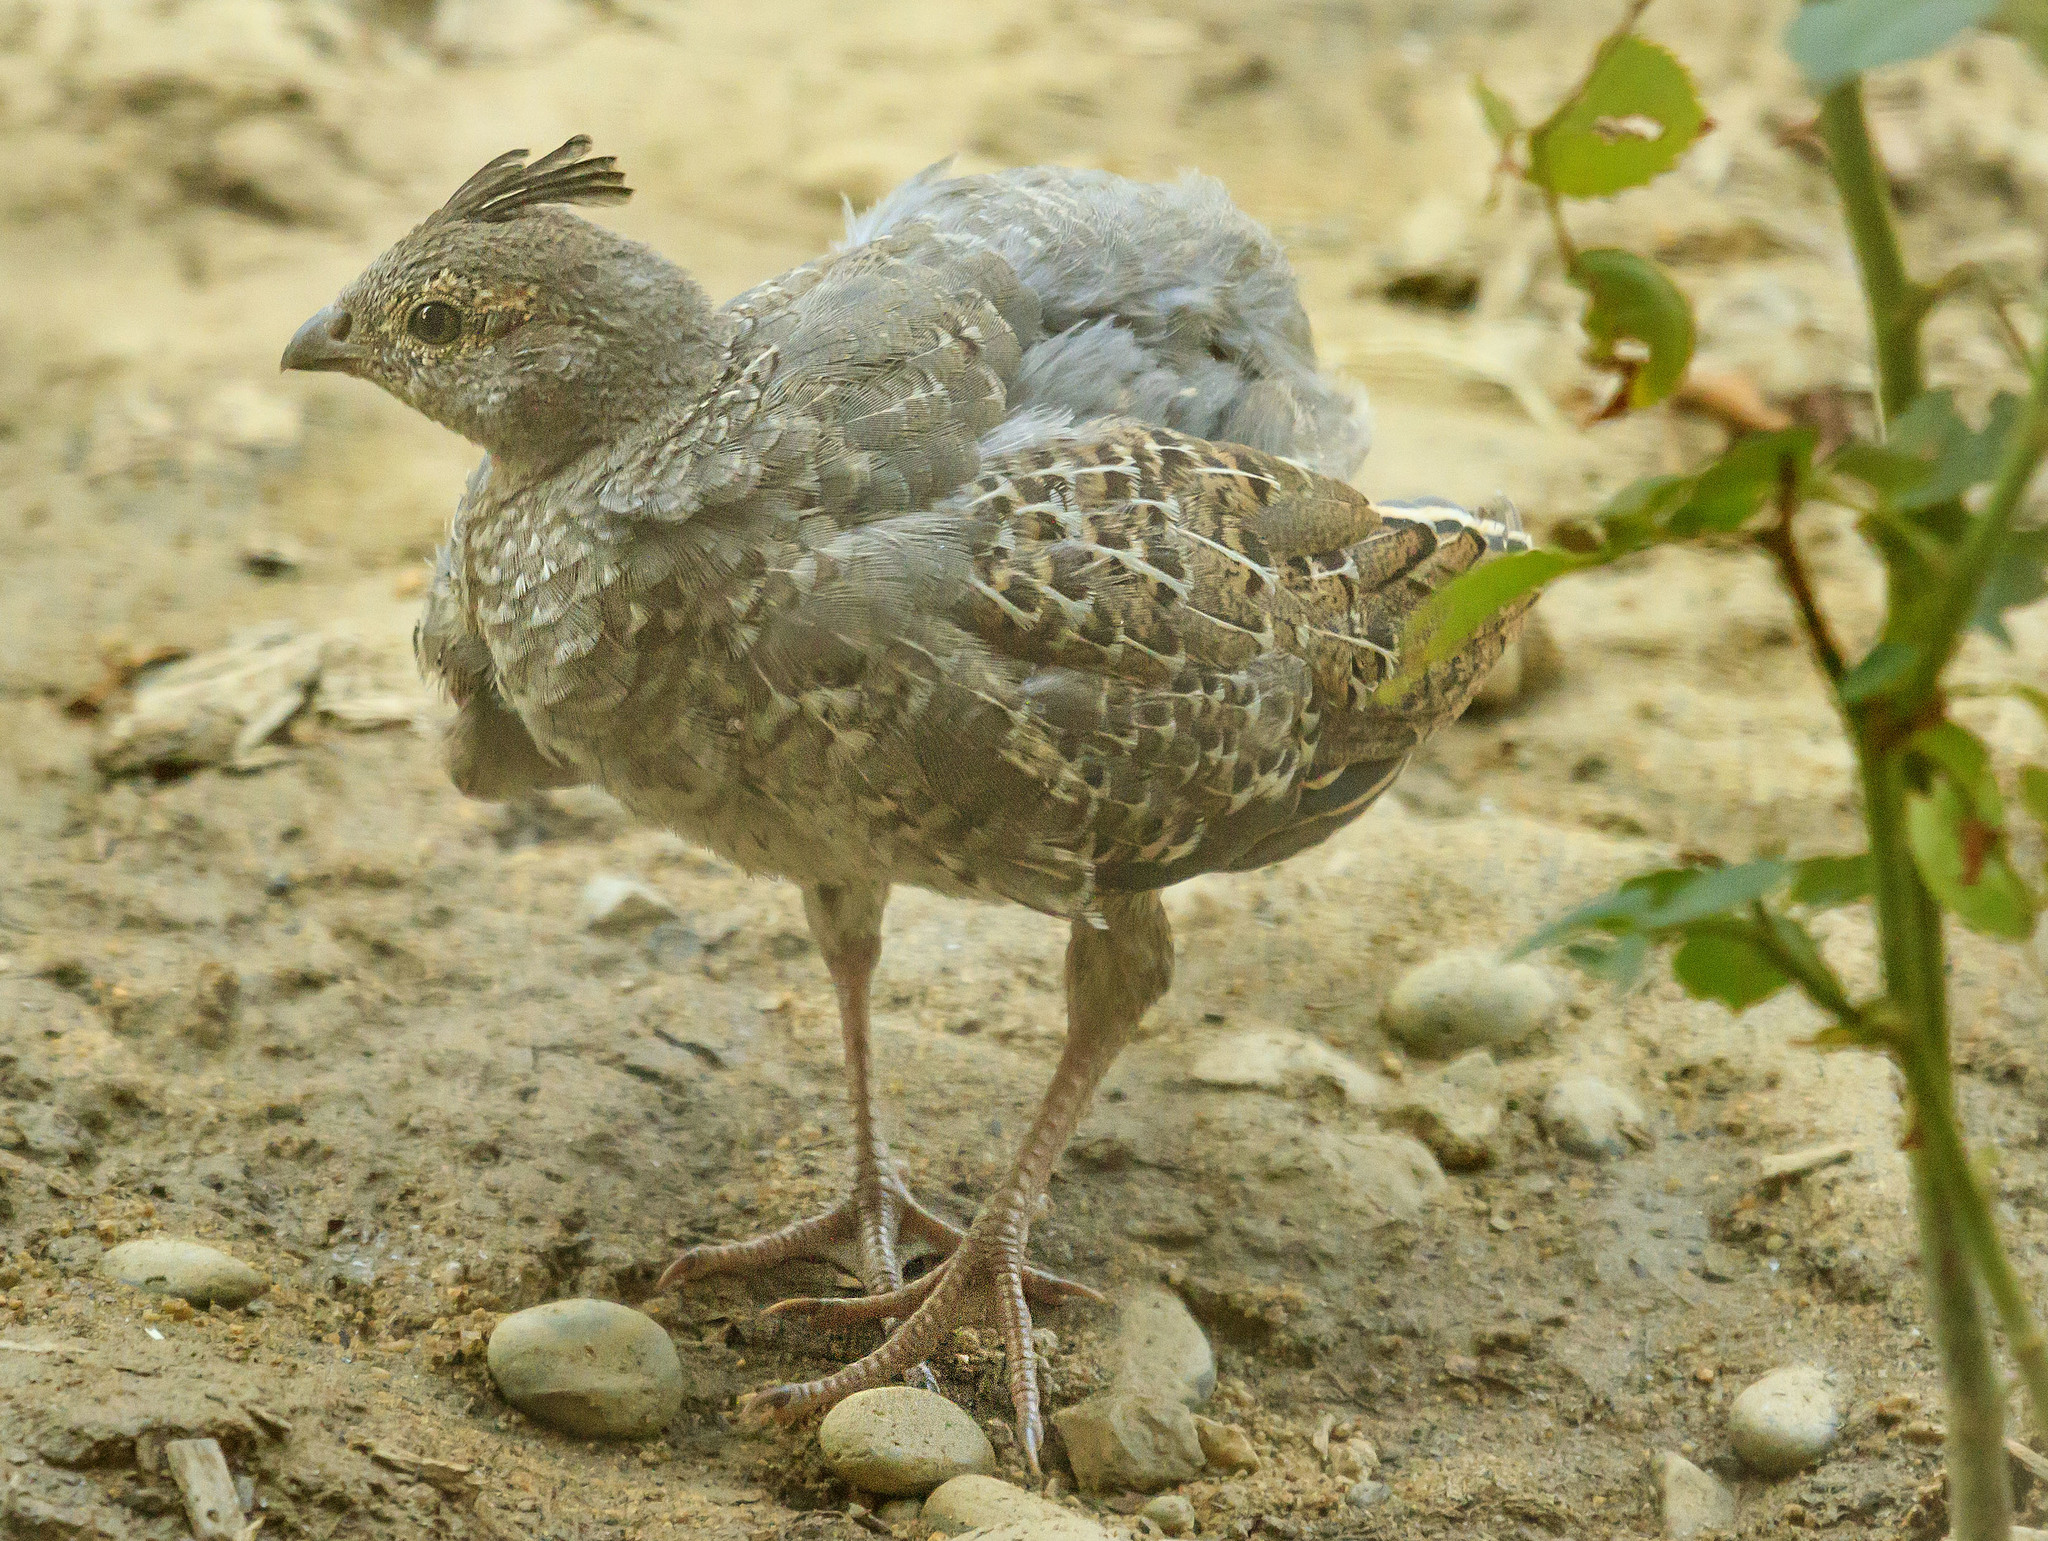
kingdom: Animalia
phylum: Chordata
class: Aves
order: Galliformes
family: Odontophoridae
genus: Callipepla
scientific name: Callipepla californica
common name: California quail
